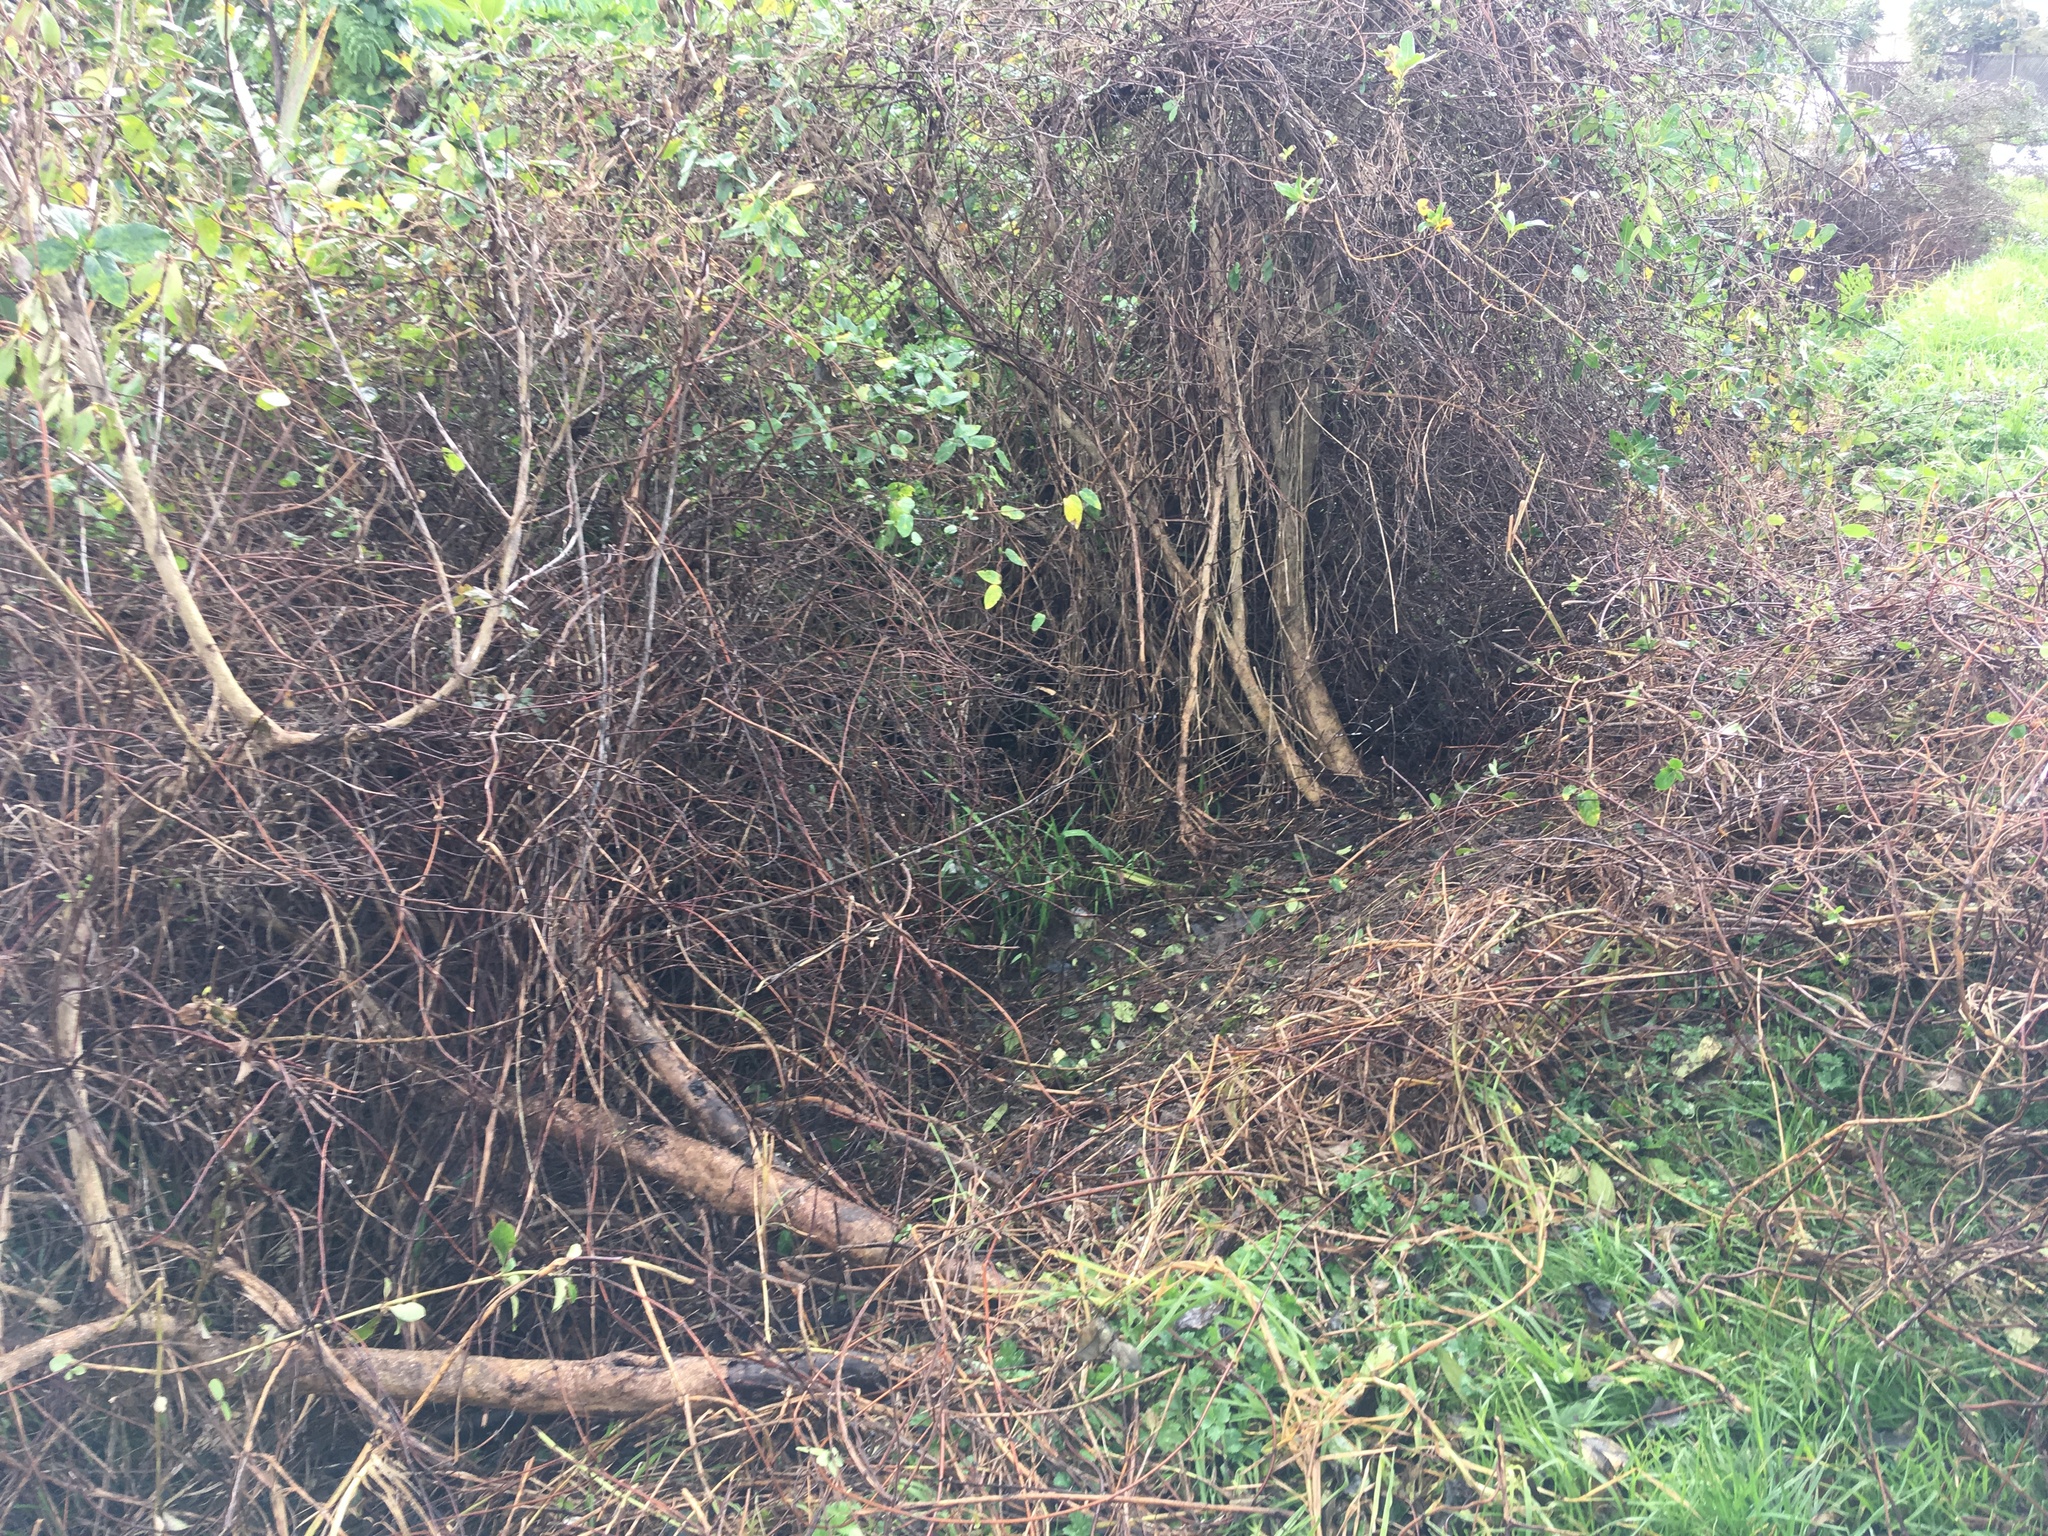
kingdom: Plantae
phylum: Tracheophyta
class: Liliopsida
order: Poales
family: Poaceae
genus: Cenchrus
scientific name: Cenchrus clandestinus
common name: Kikuyugrass
